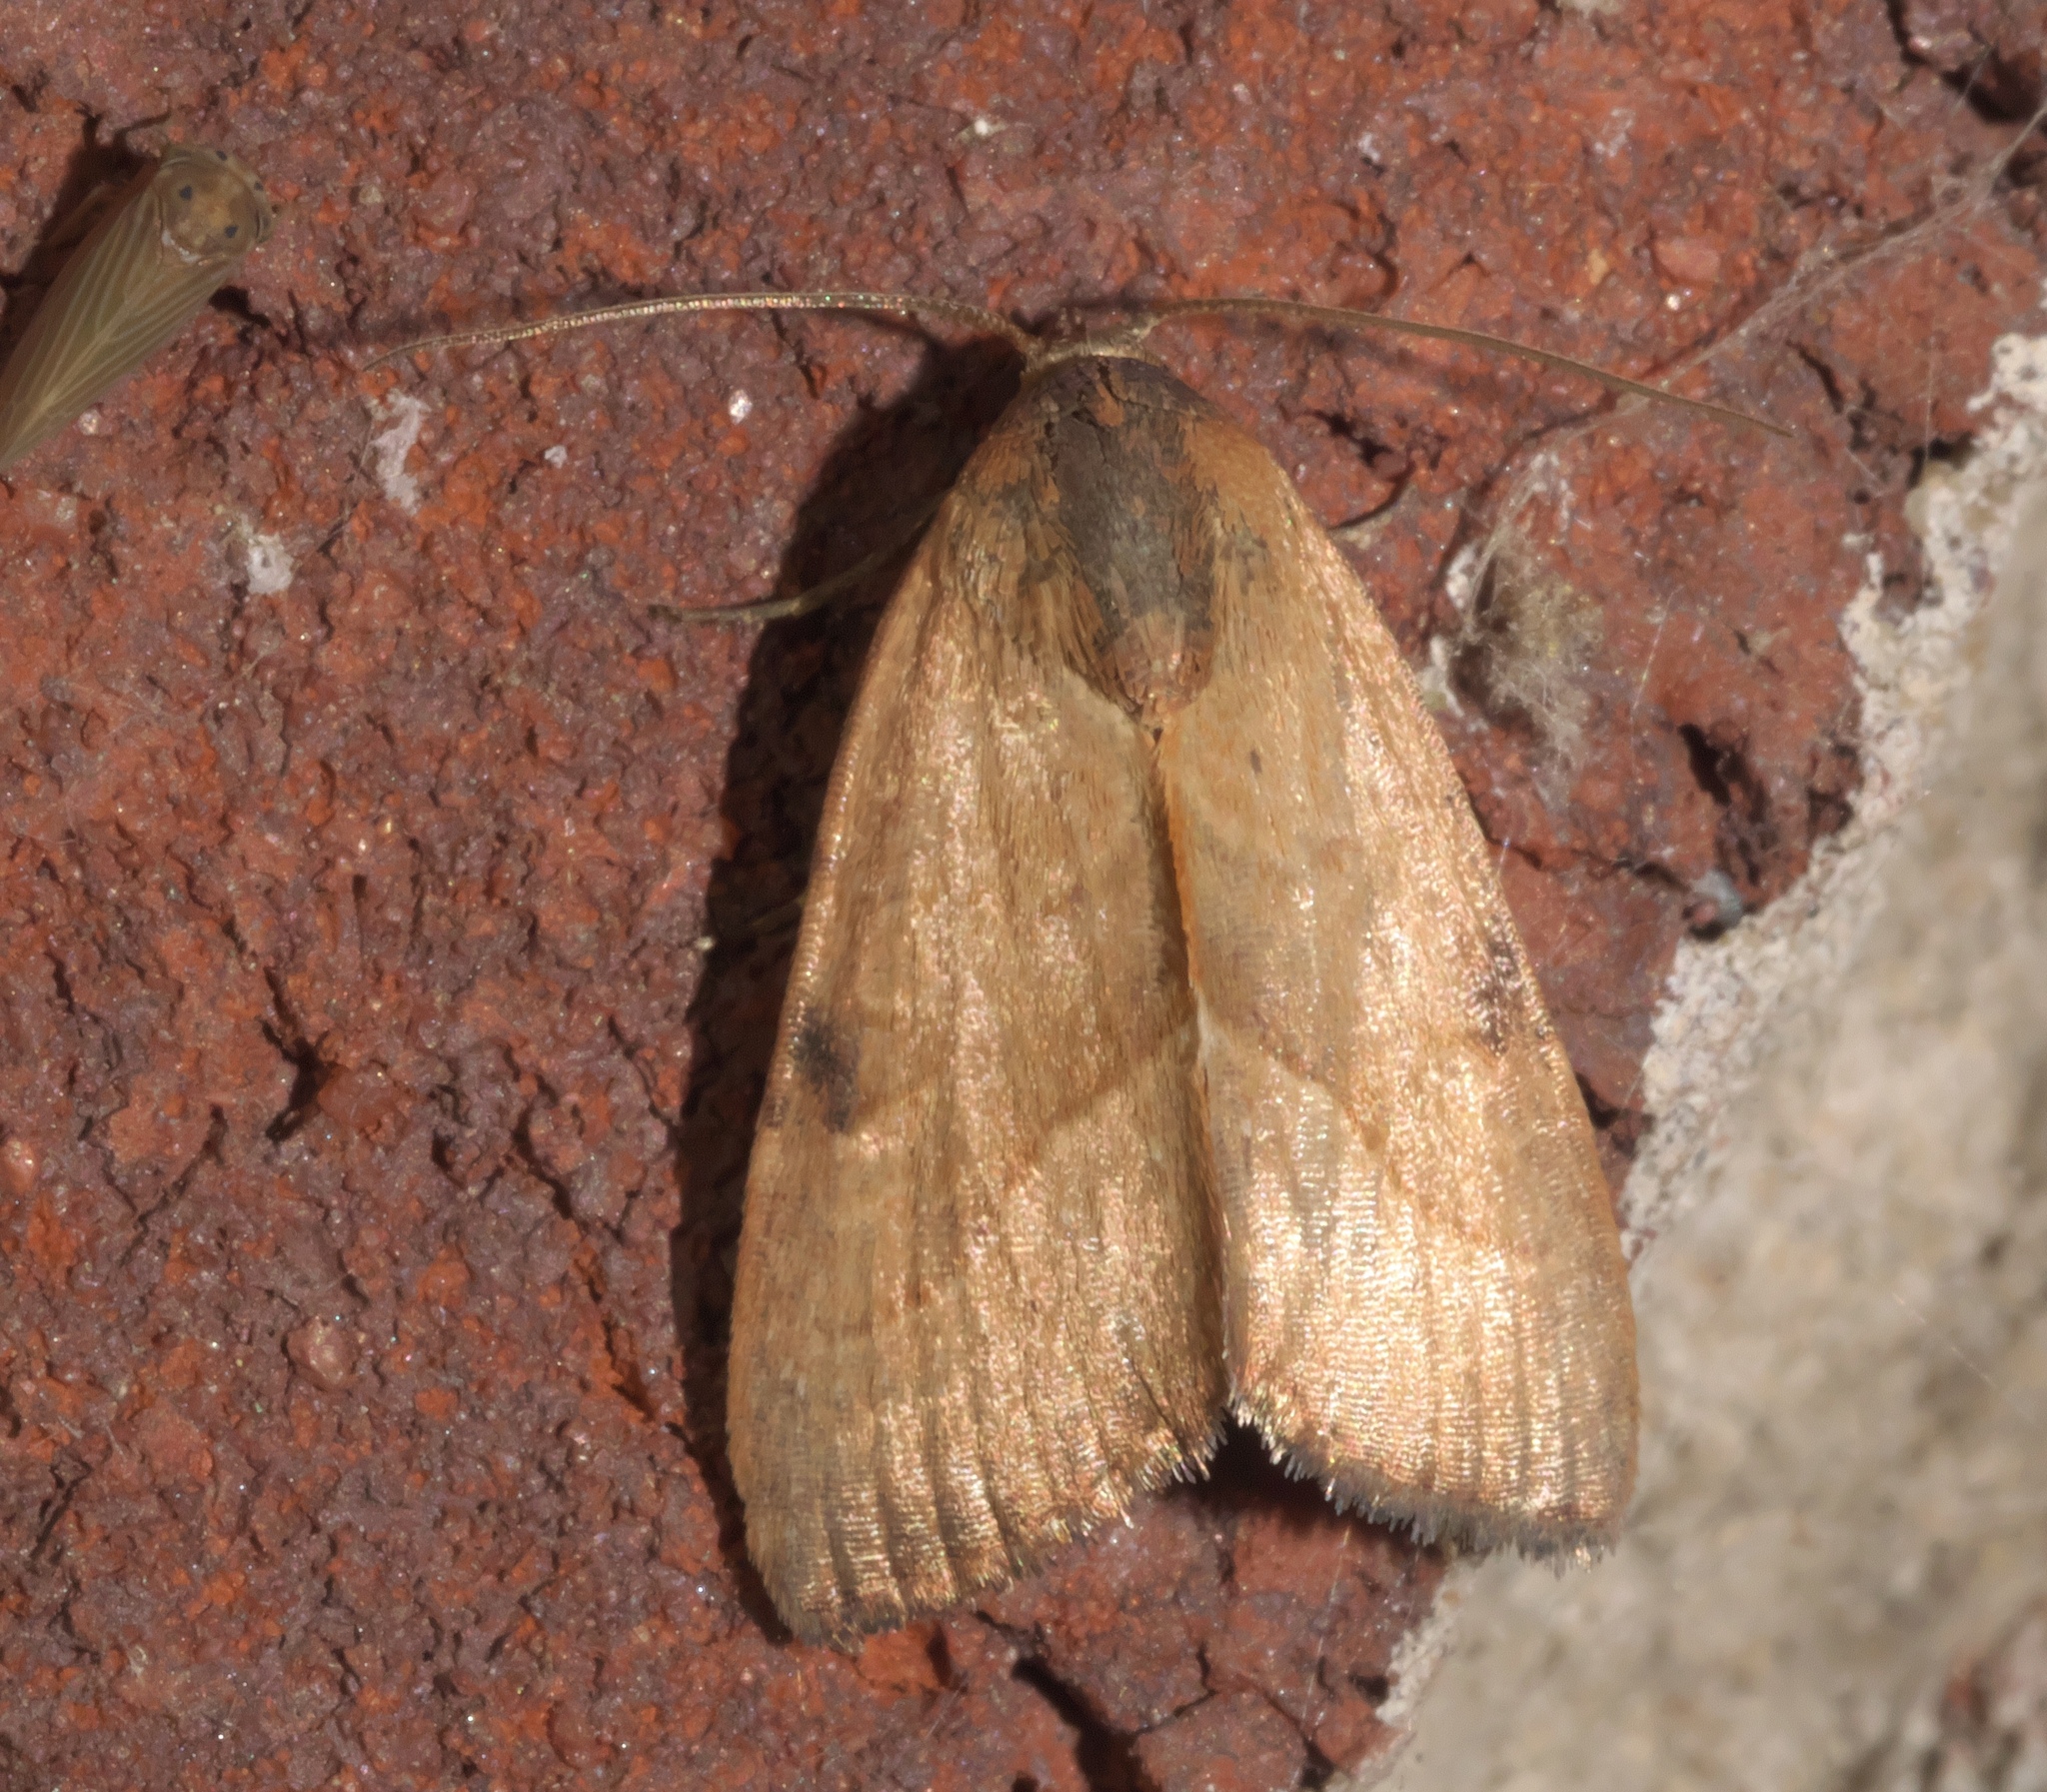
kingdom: Animalia
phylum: Arthropoda
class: Insecta
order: Lepidoptera
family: Noctuidae
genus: Galgula
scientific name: Galgula partita
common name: Wedgeling
